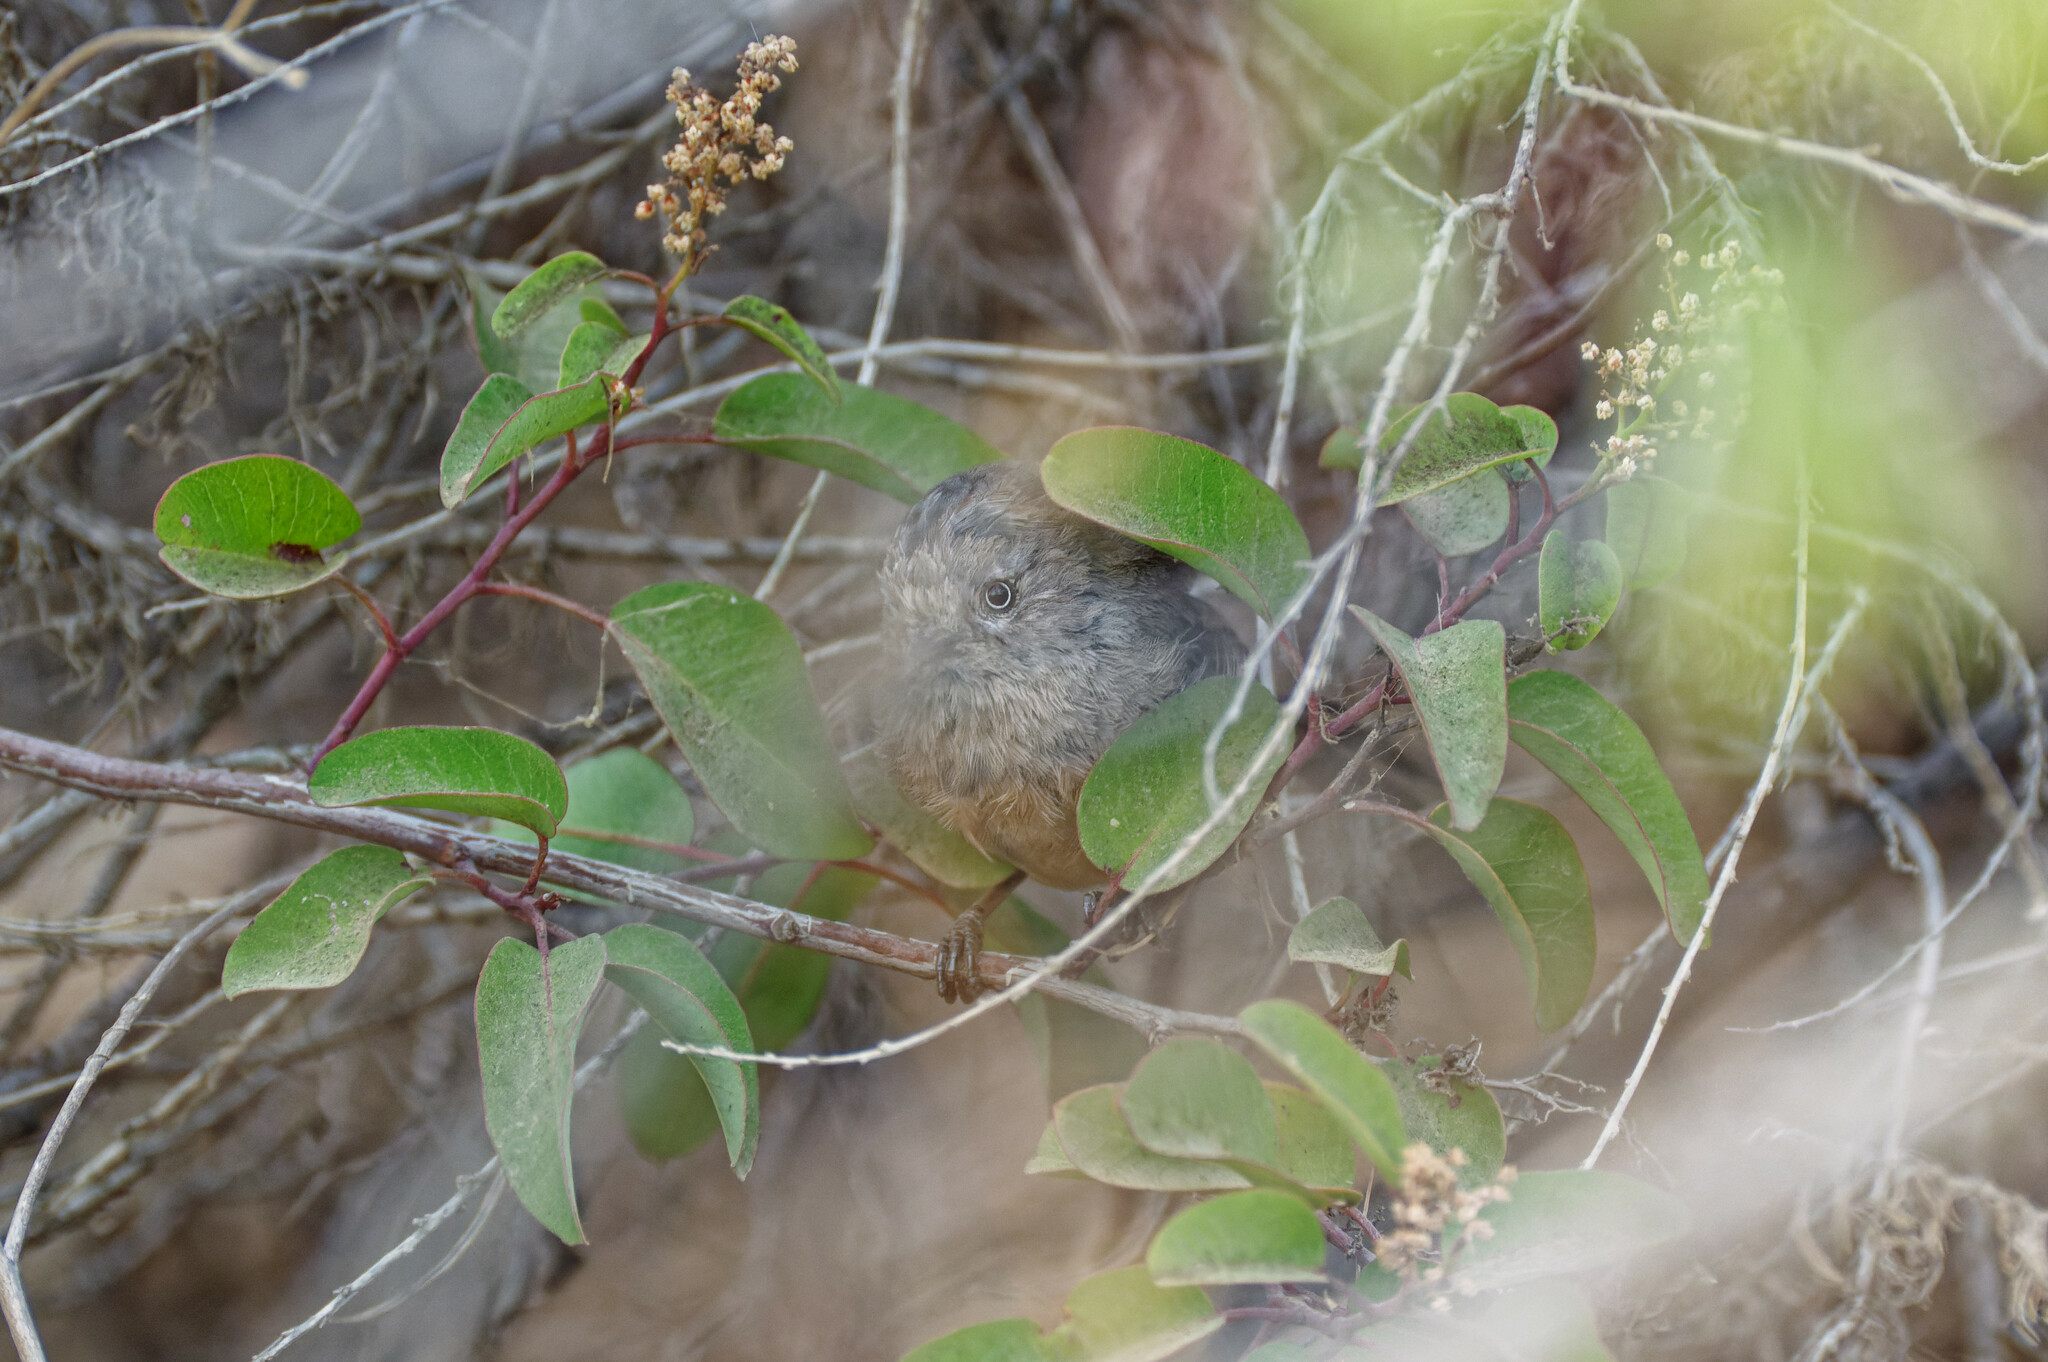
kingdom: Animalia
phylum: Chordata
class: Aves
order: Passeriformes
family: Sylviidae
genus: Chamaea
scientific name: Chamaea fasciata
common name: Wrentit
